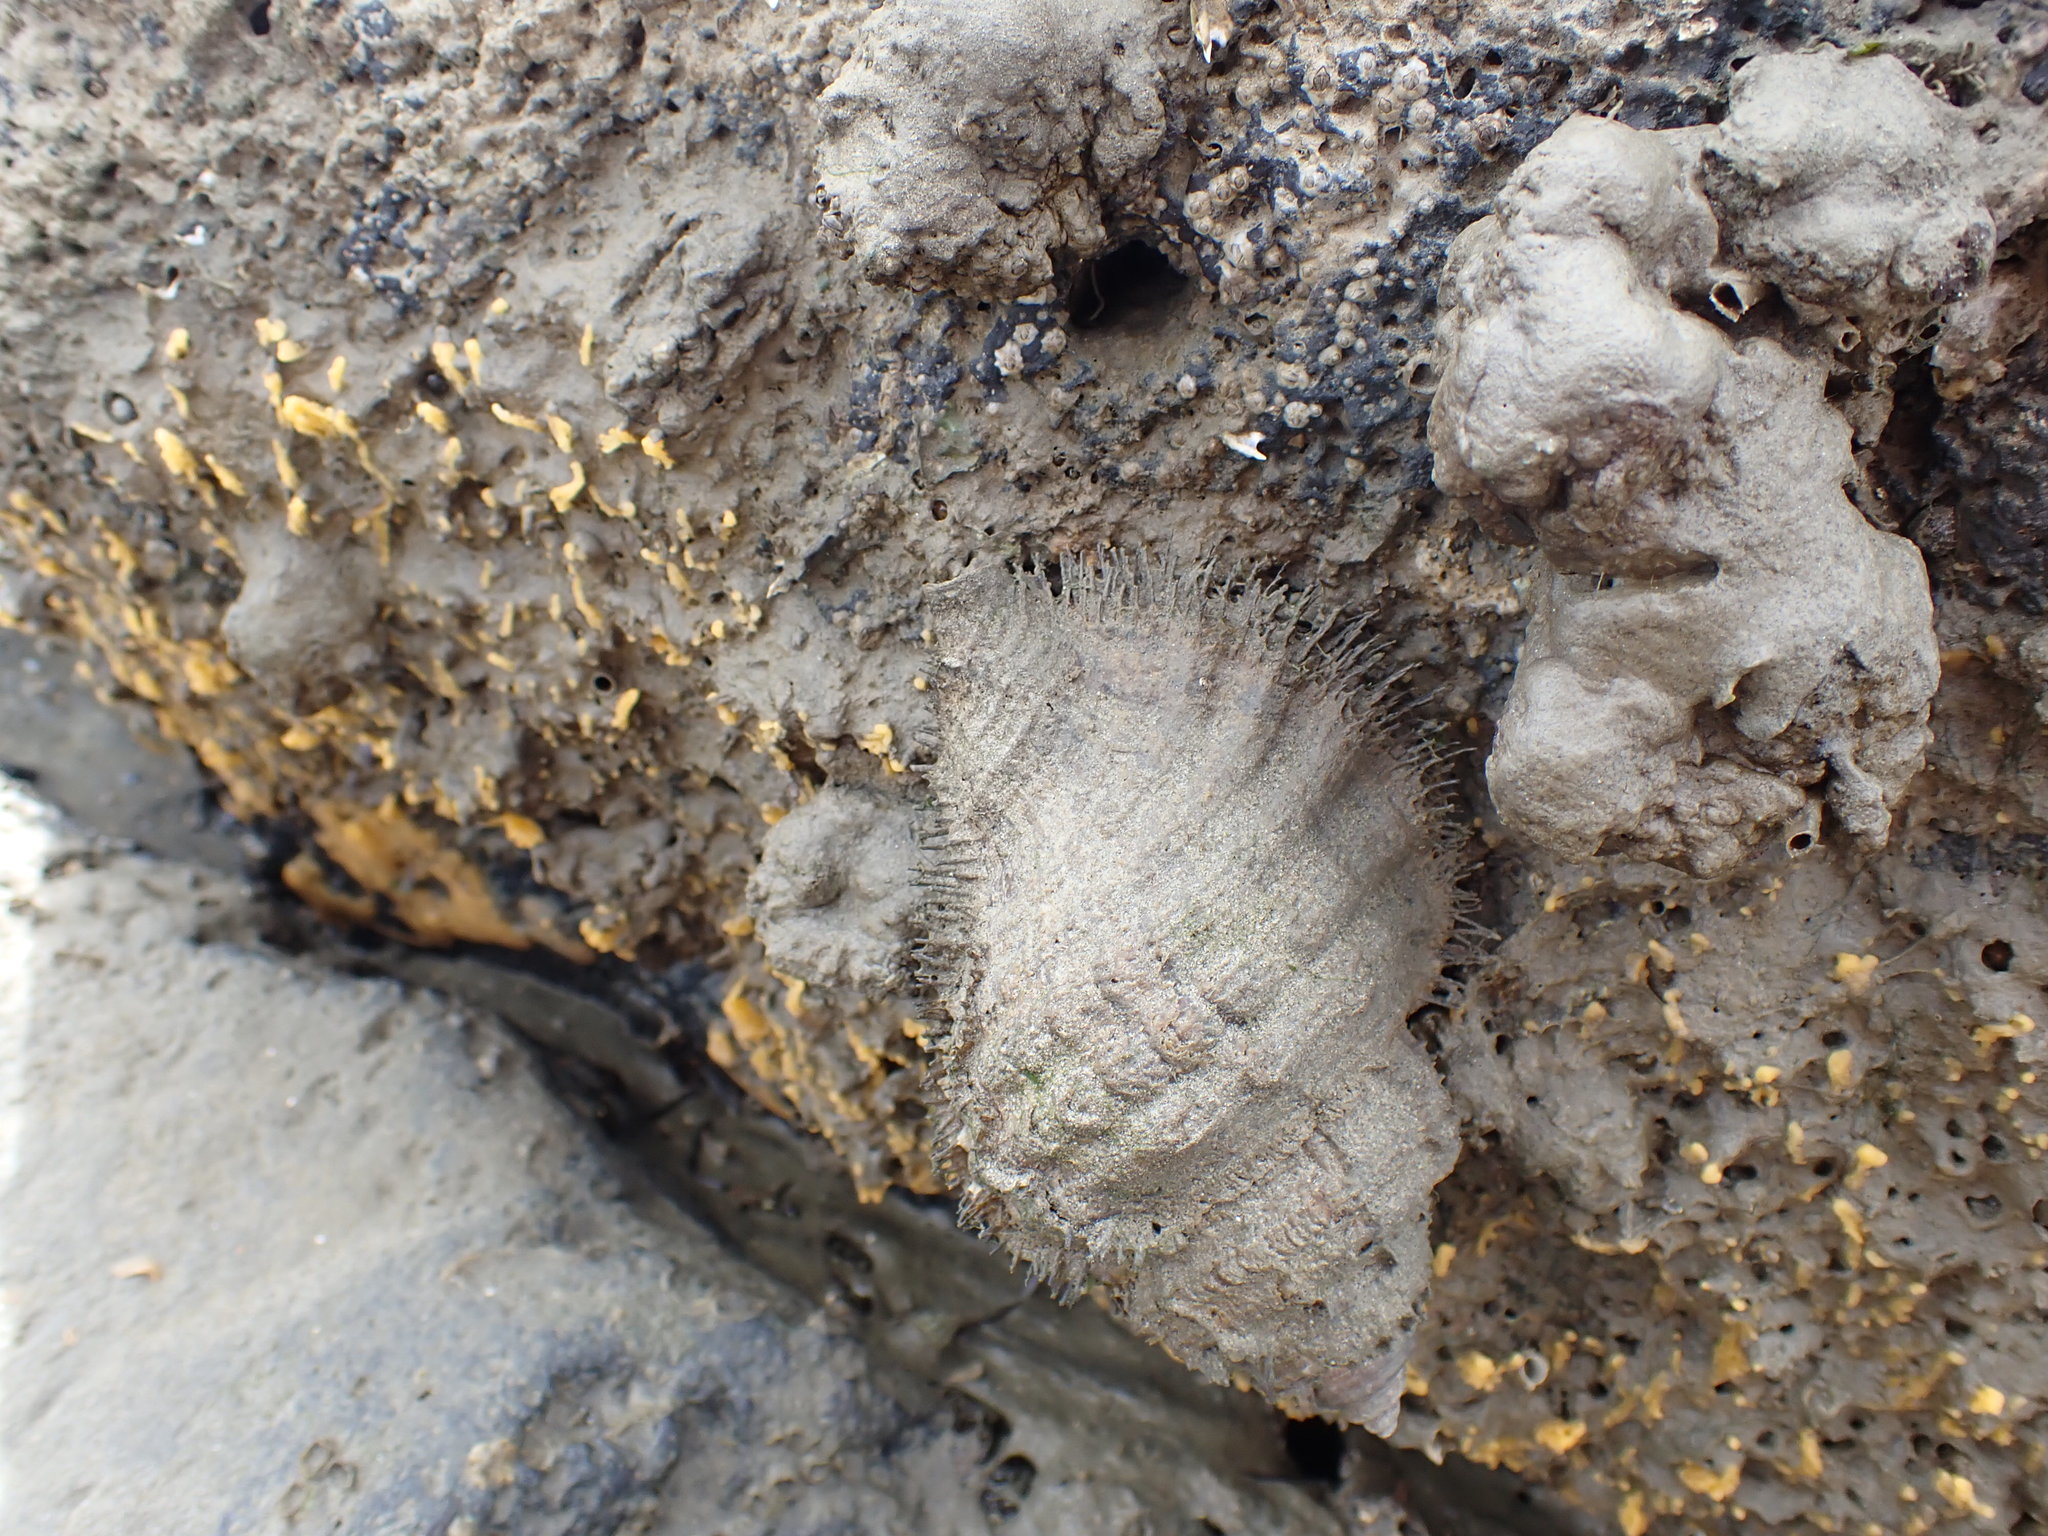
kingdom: Animalia
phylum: Mollusca
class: Gastropoda
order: Littorinimorpha
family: Cymatiidae
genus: Monoplex
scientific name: Monoplex parthenopeus
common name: Giant triton
